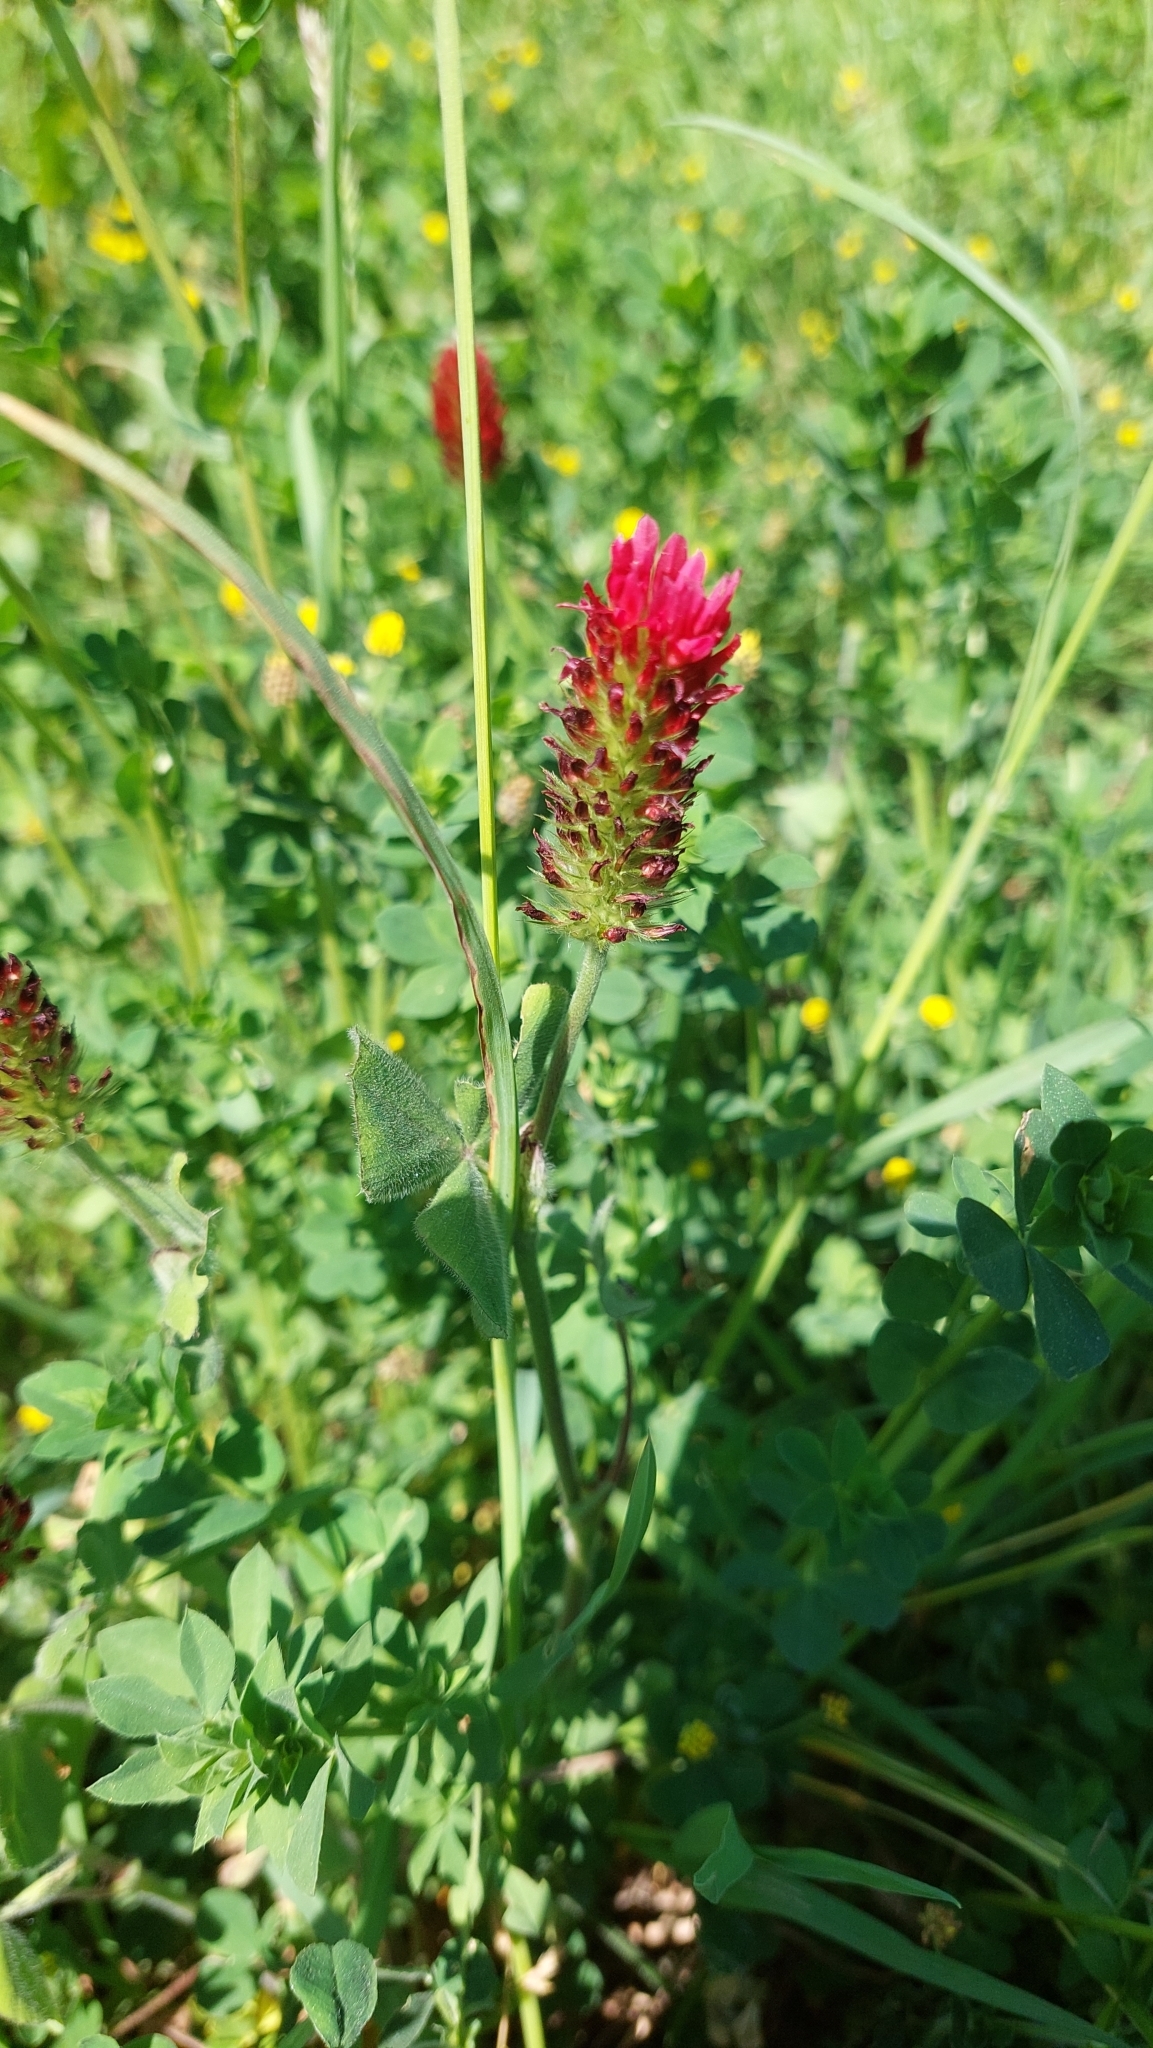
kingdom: Plantae
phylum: Tracheophyta
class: Magnoliopsida
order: Fabales
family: Fabaceae
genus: Trifolium
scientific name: Trifolium incarnatum
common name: Crimson clover
